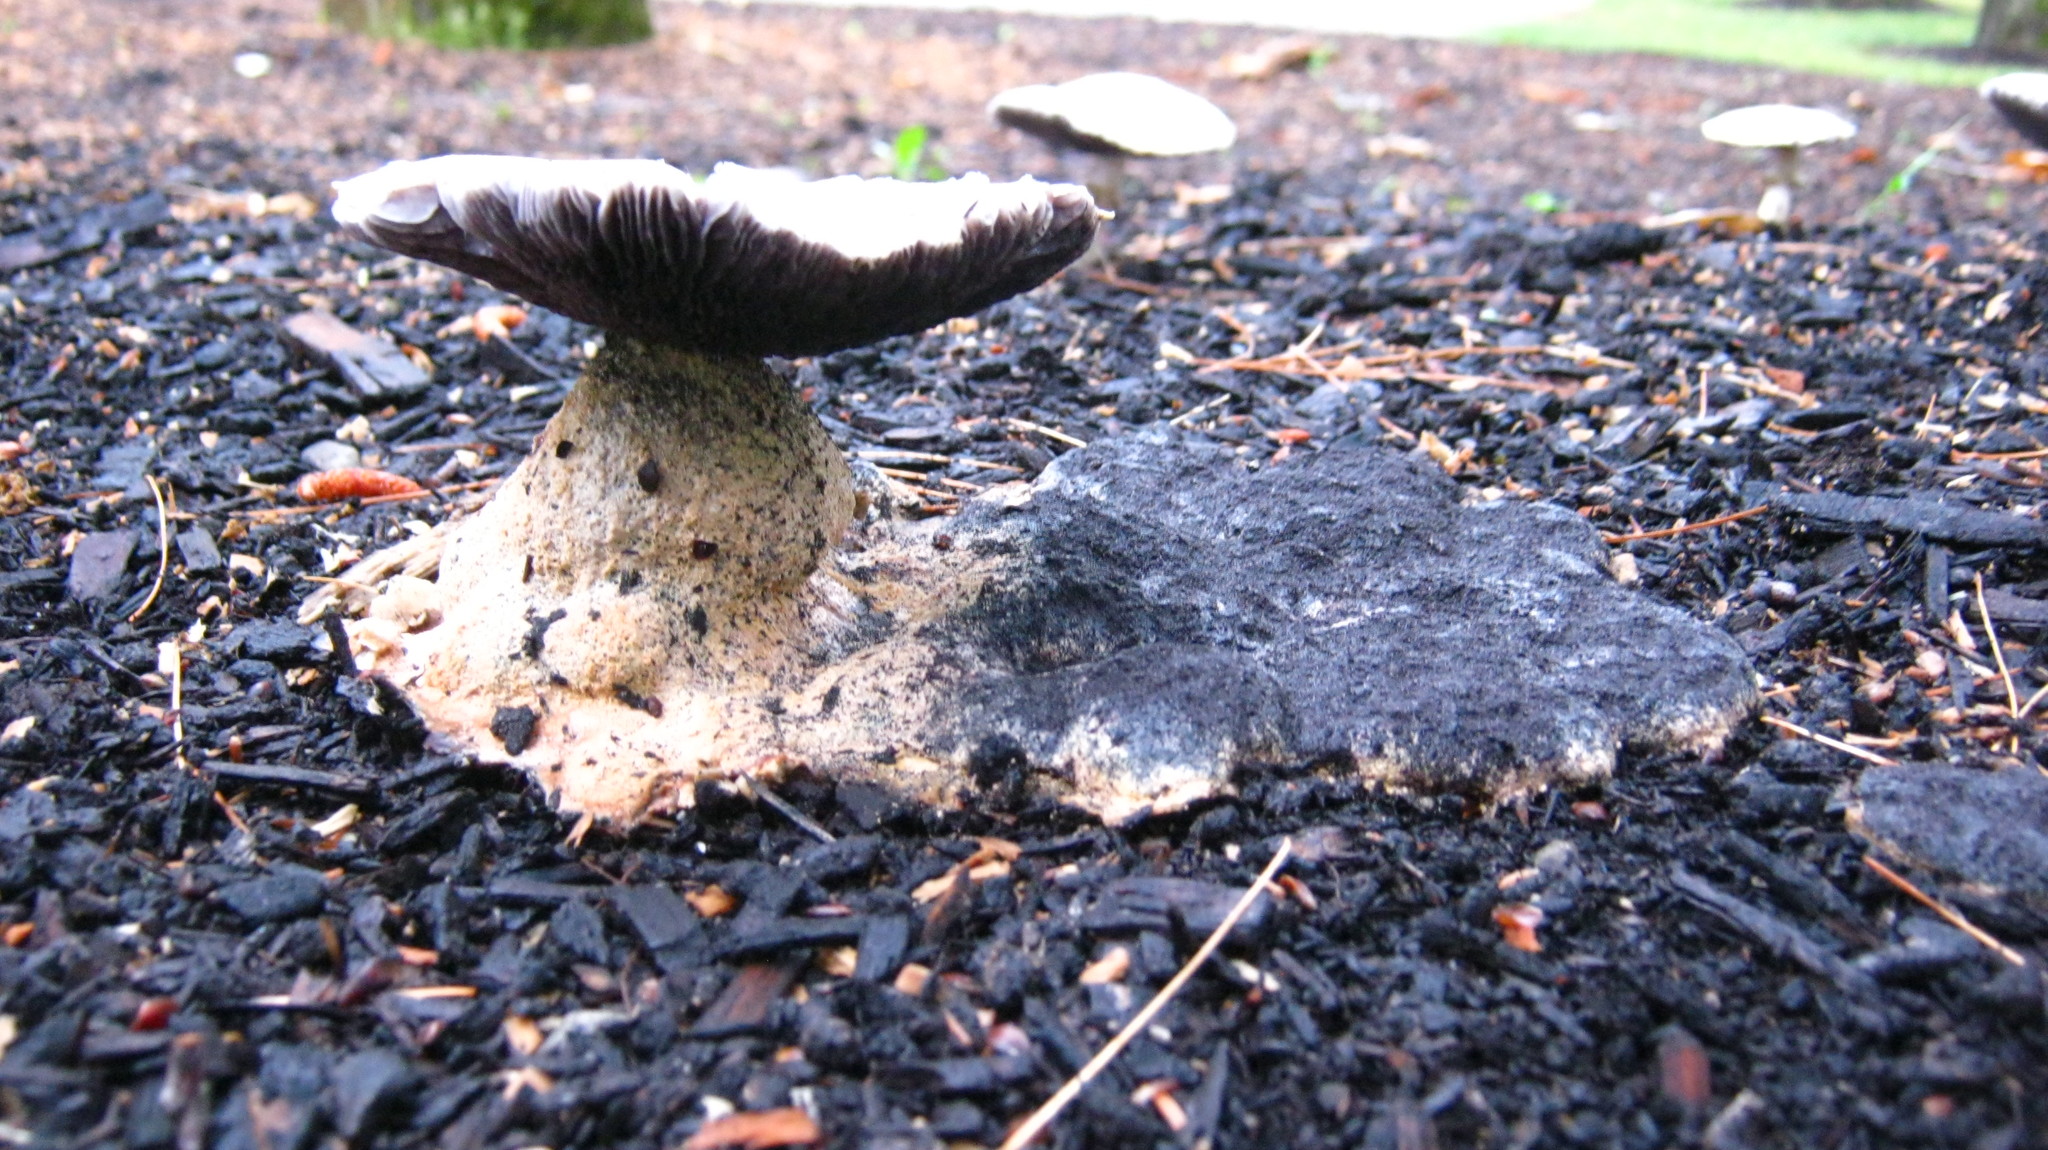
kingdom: Protozoa
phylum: Mycetozoa
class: Myxomycetes
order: Physarales
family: Physaraceae
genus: Fuligo
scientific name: Fuligo septica
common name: Dog vomit slime mold
